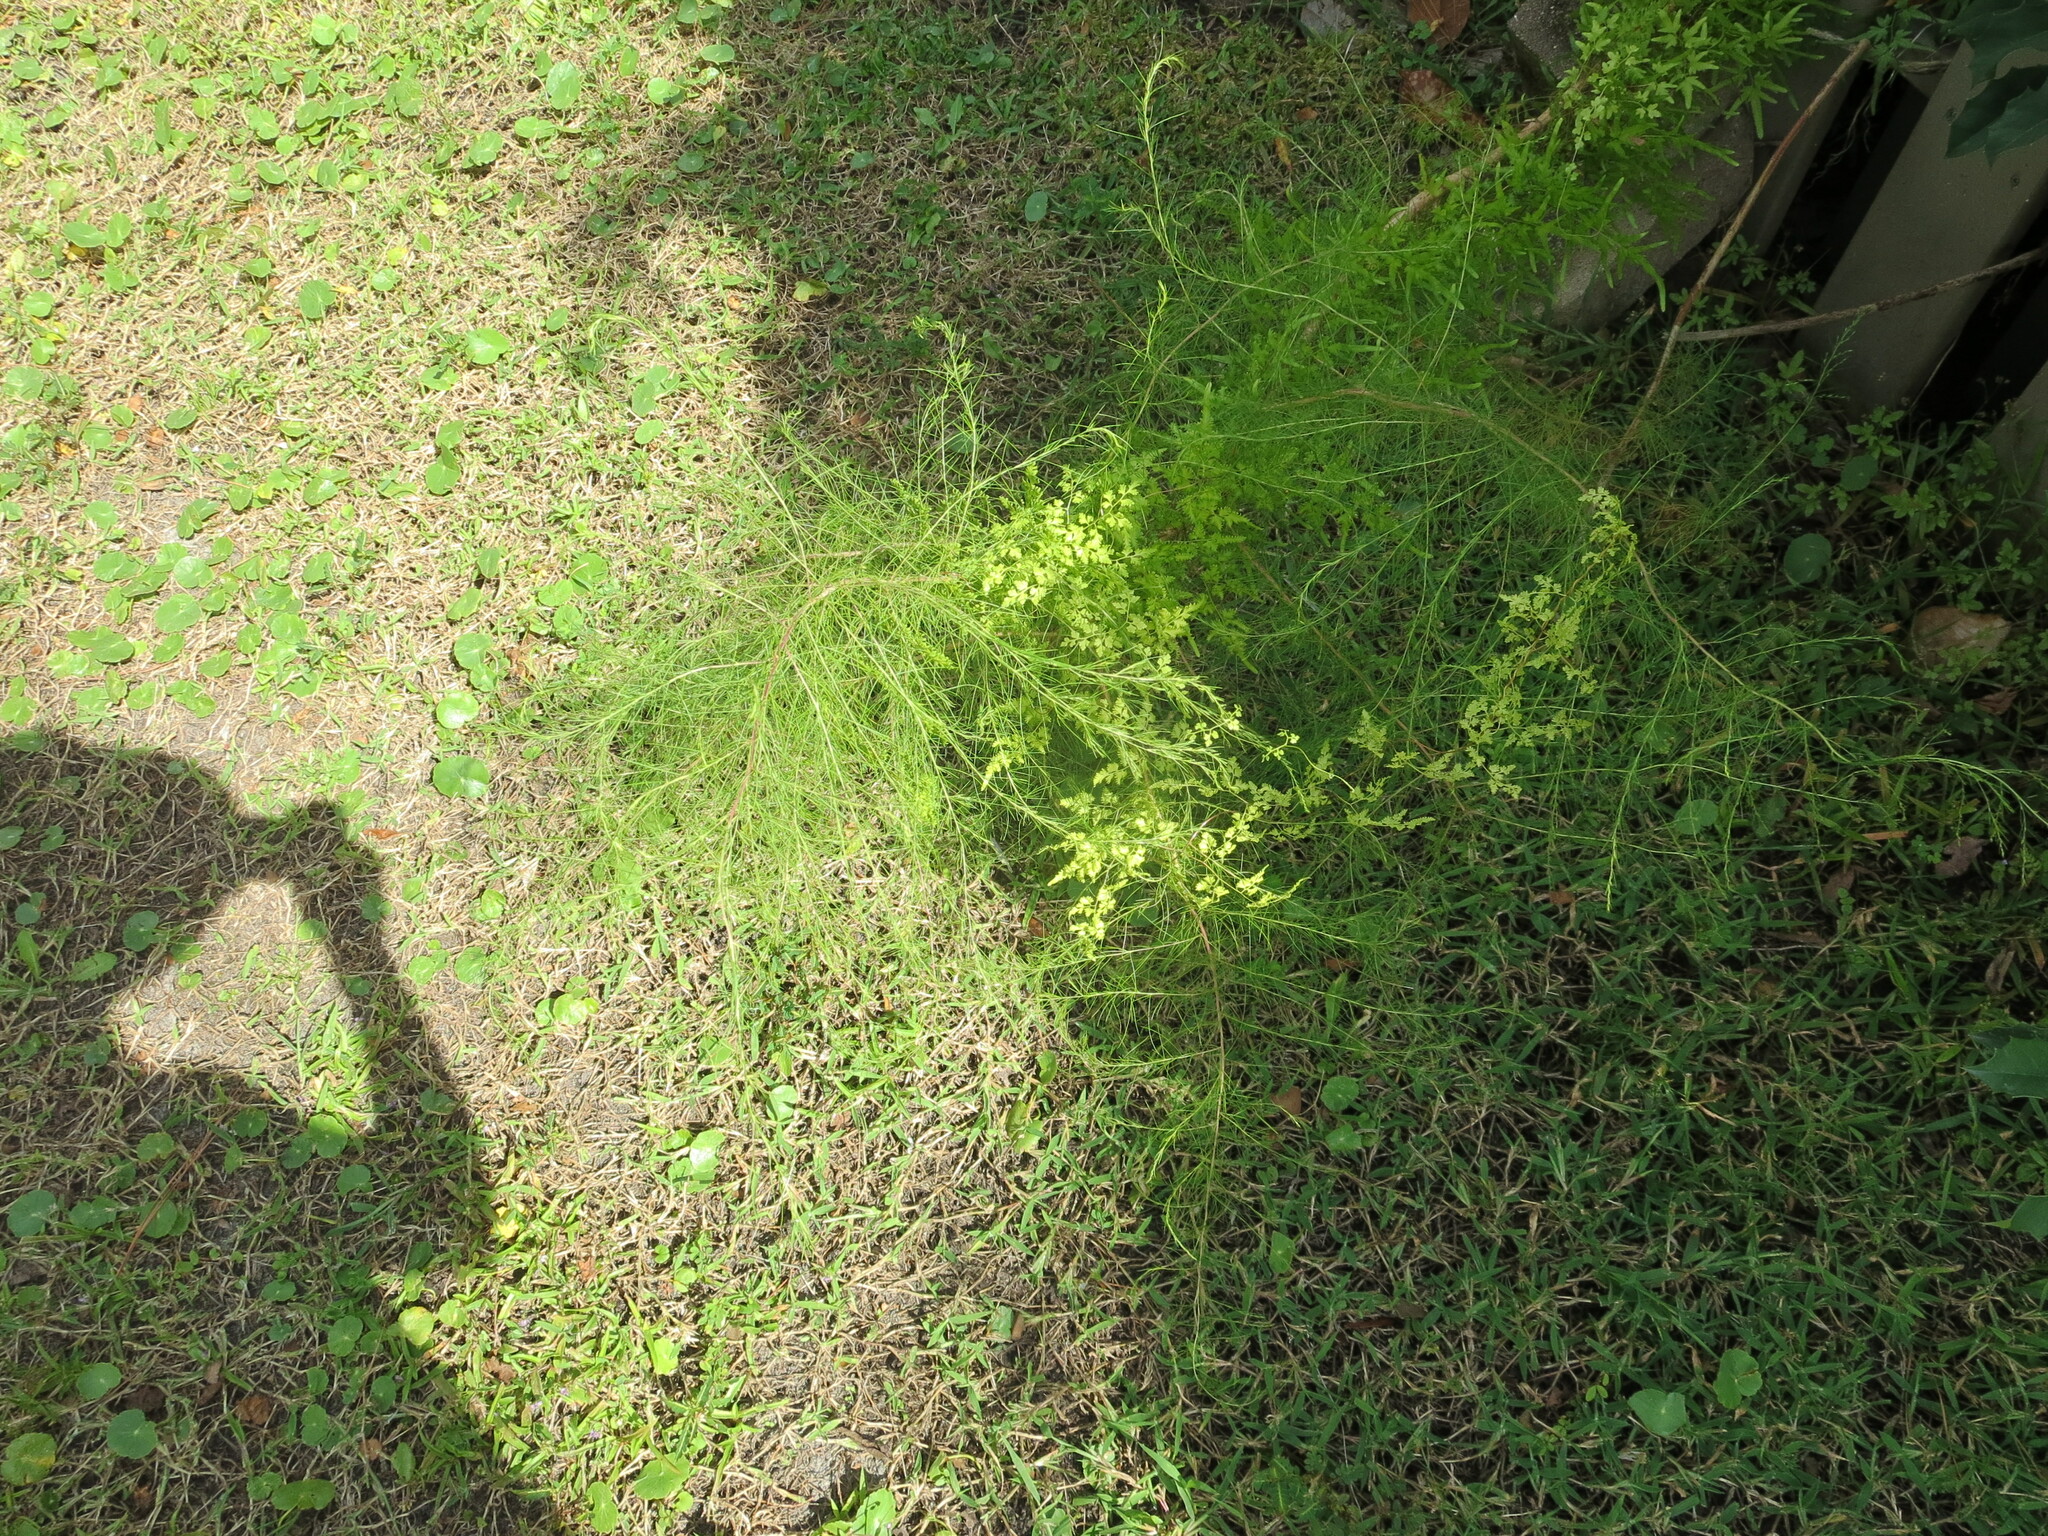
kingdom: Plantae
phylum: Tracheophyta
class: Magnoliopsida
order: Asterales
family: Asteraceae
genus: Eupatorium
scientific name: Eupatorium capillifolium
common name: Dog-fennel
